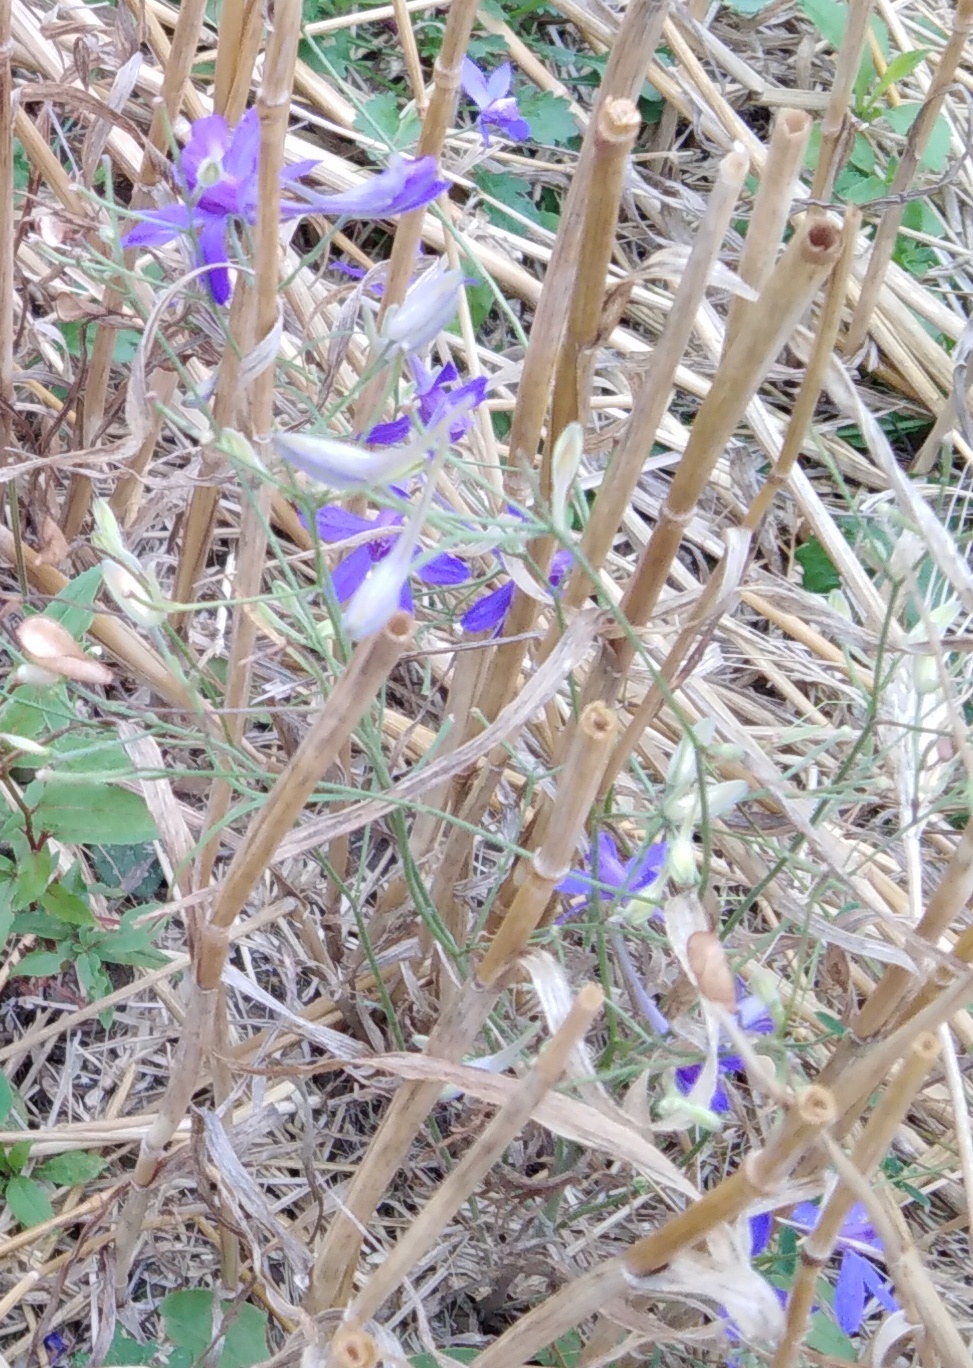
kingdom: Plantae
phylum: Tracheophyta
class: Magnoliopsida
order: Ranunculales
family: Ranunculaceae
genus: Delphinium
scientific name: Delphinium consolida
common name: Branching larkspur
